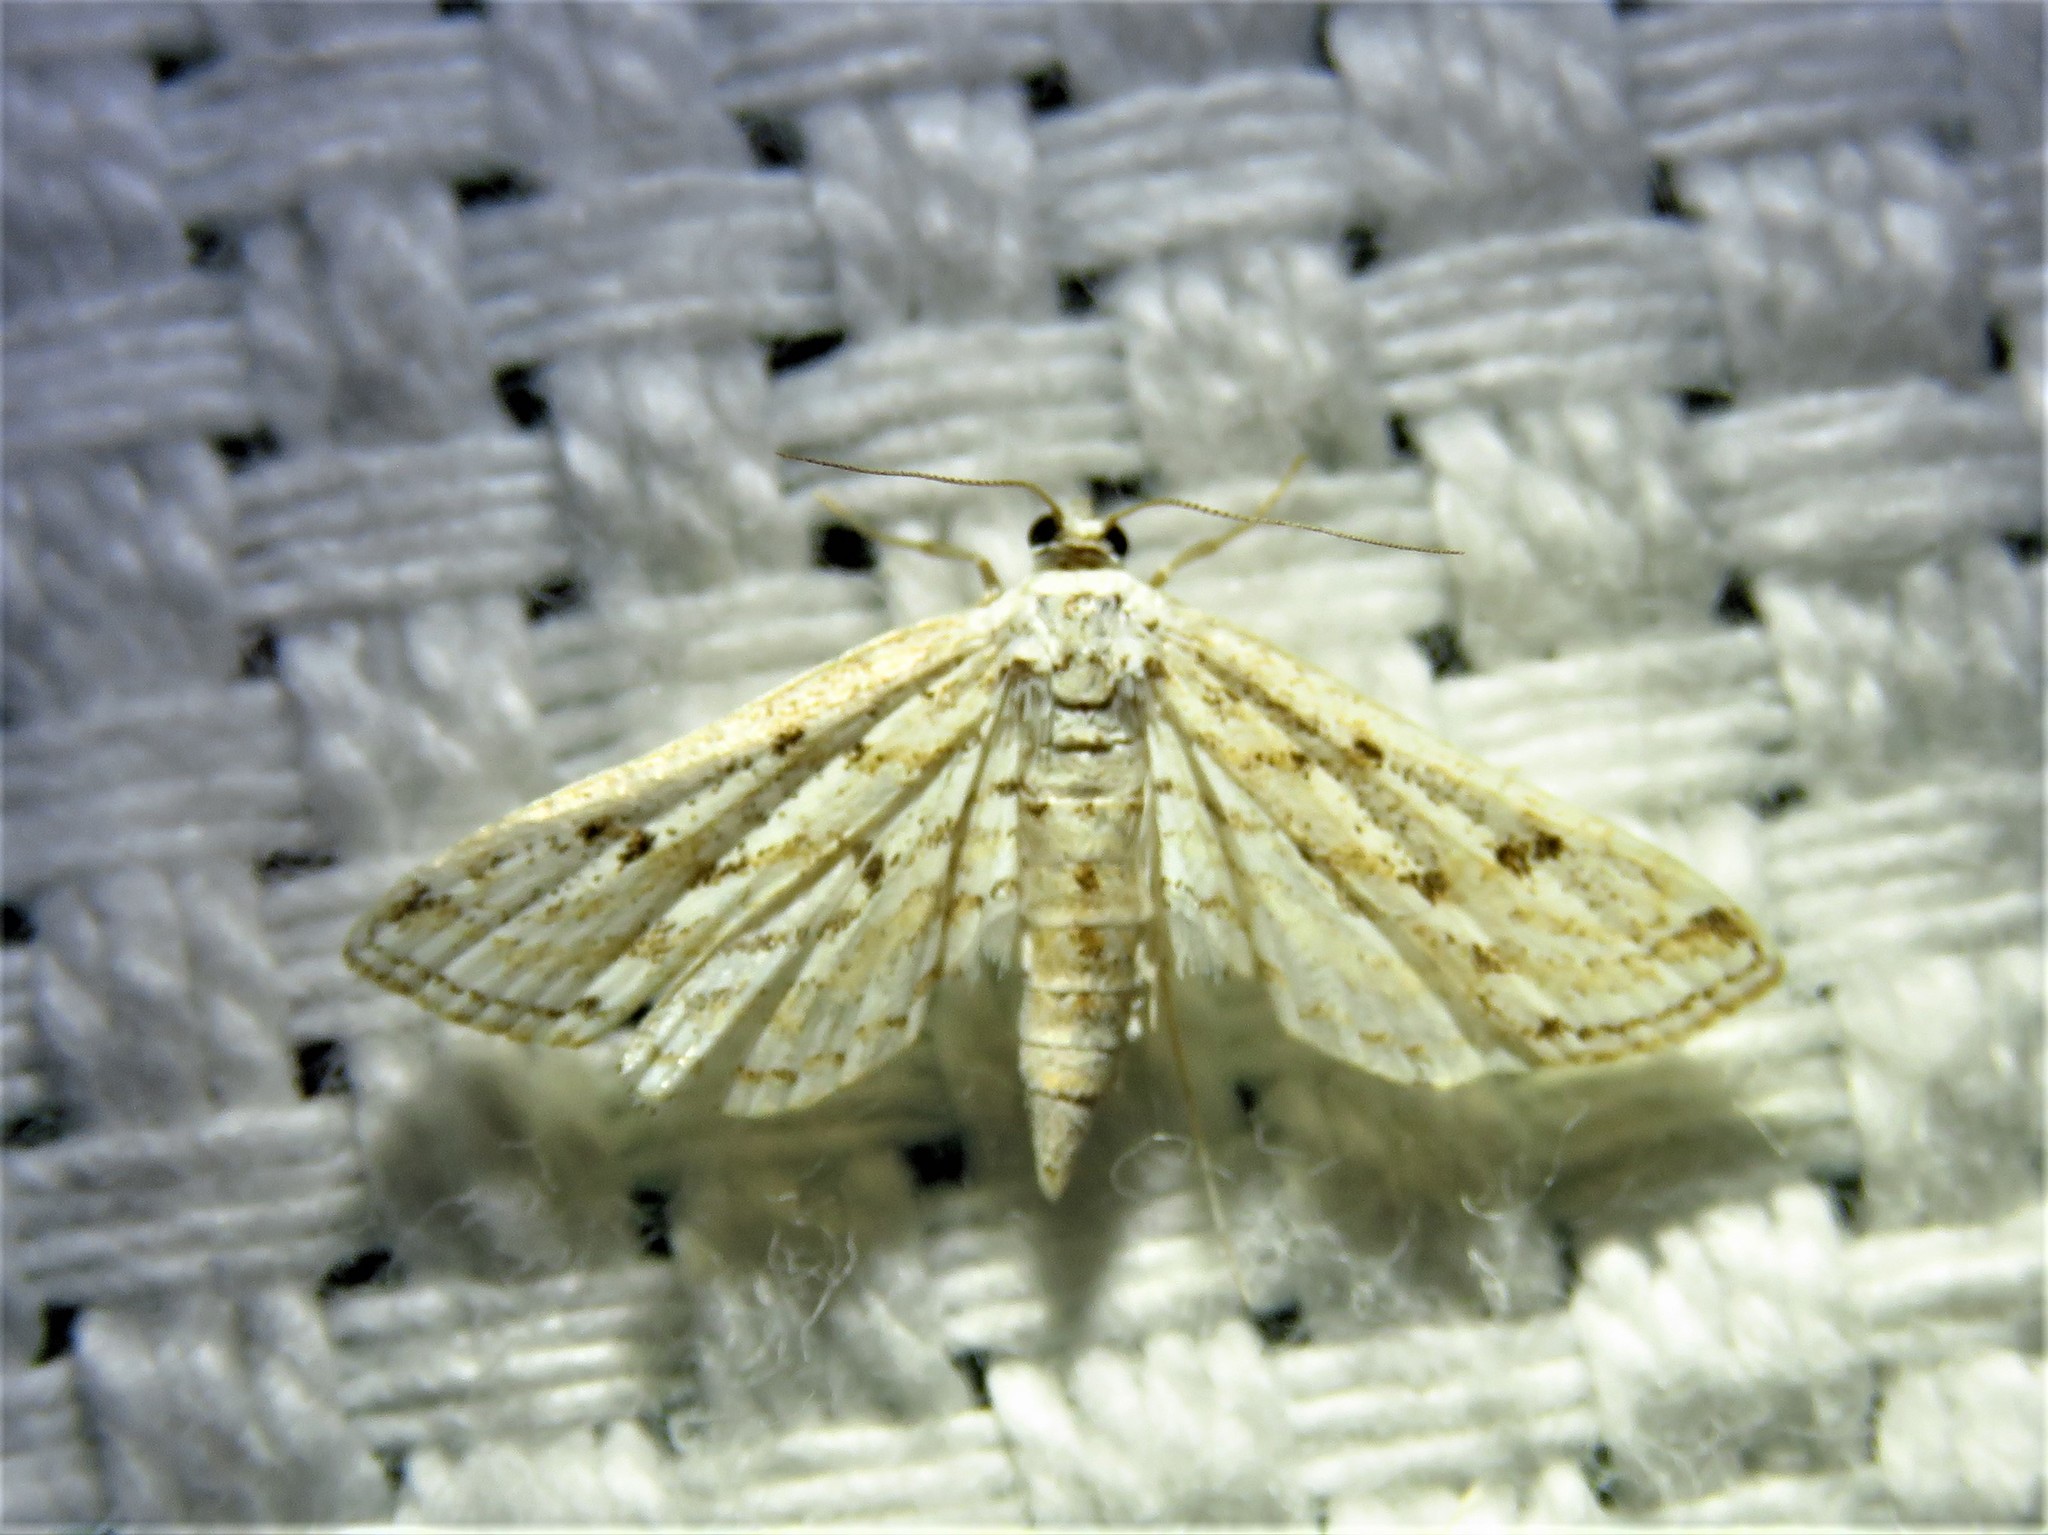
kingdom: Animalia
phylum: Arthropoda
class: Insecta
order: Lepidoptera
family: Crambidae
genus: Parapoynx
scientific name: Parapoynx allionealis
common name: Bladderwort casemaker
